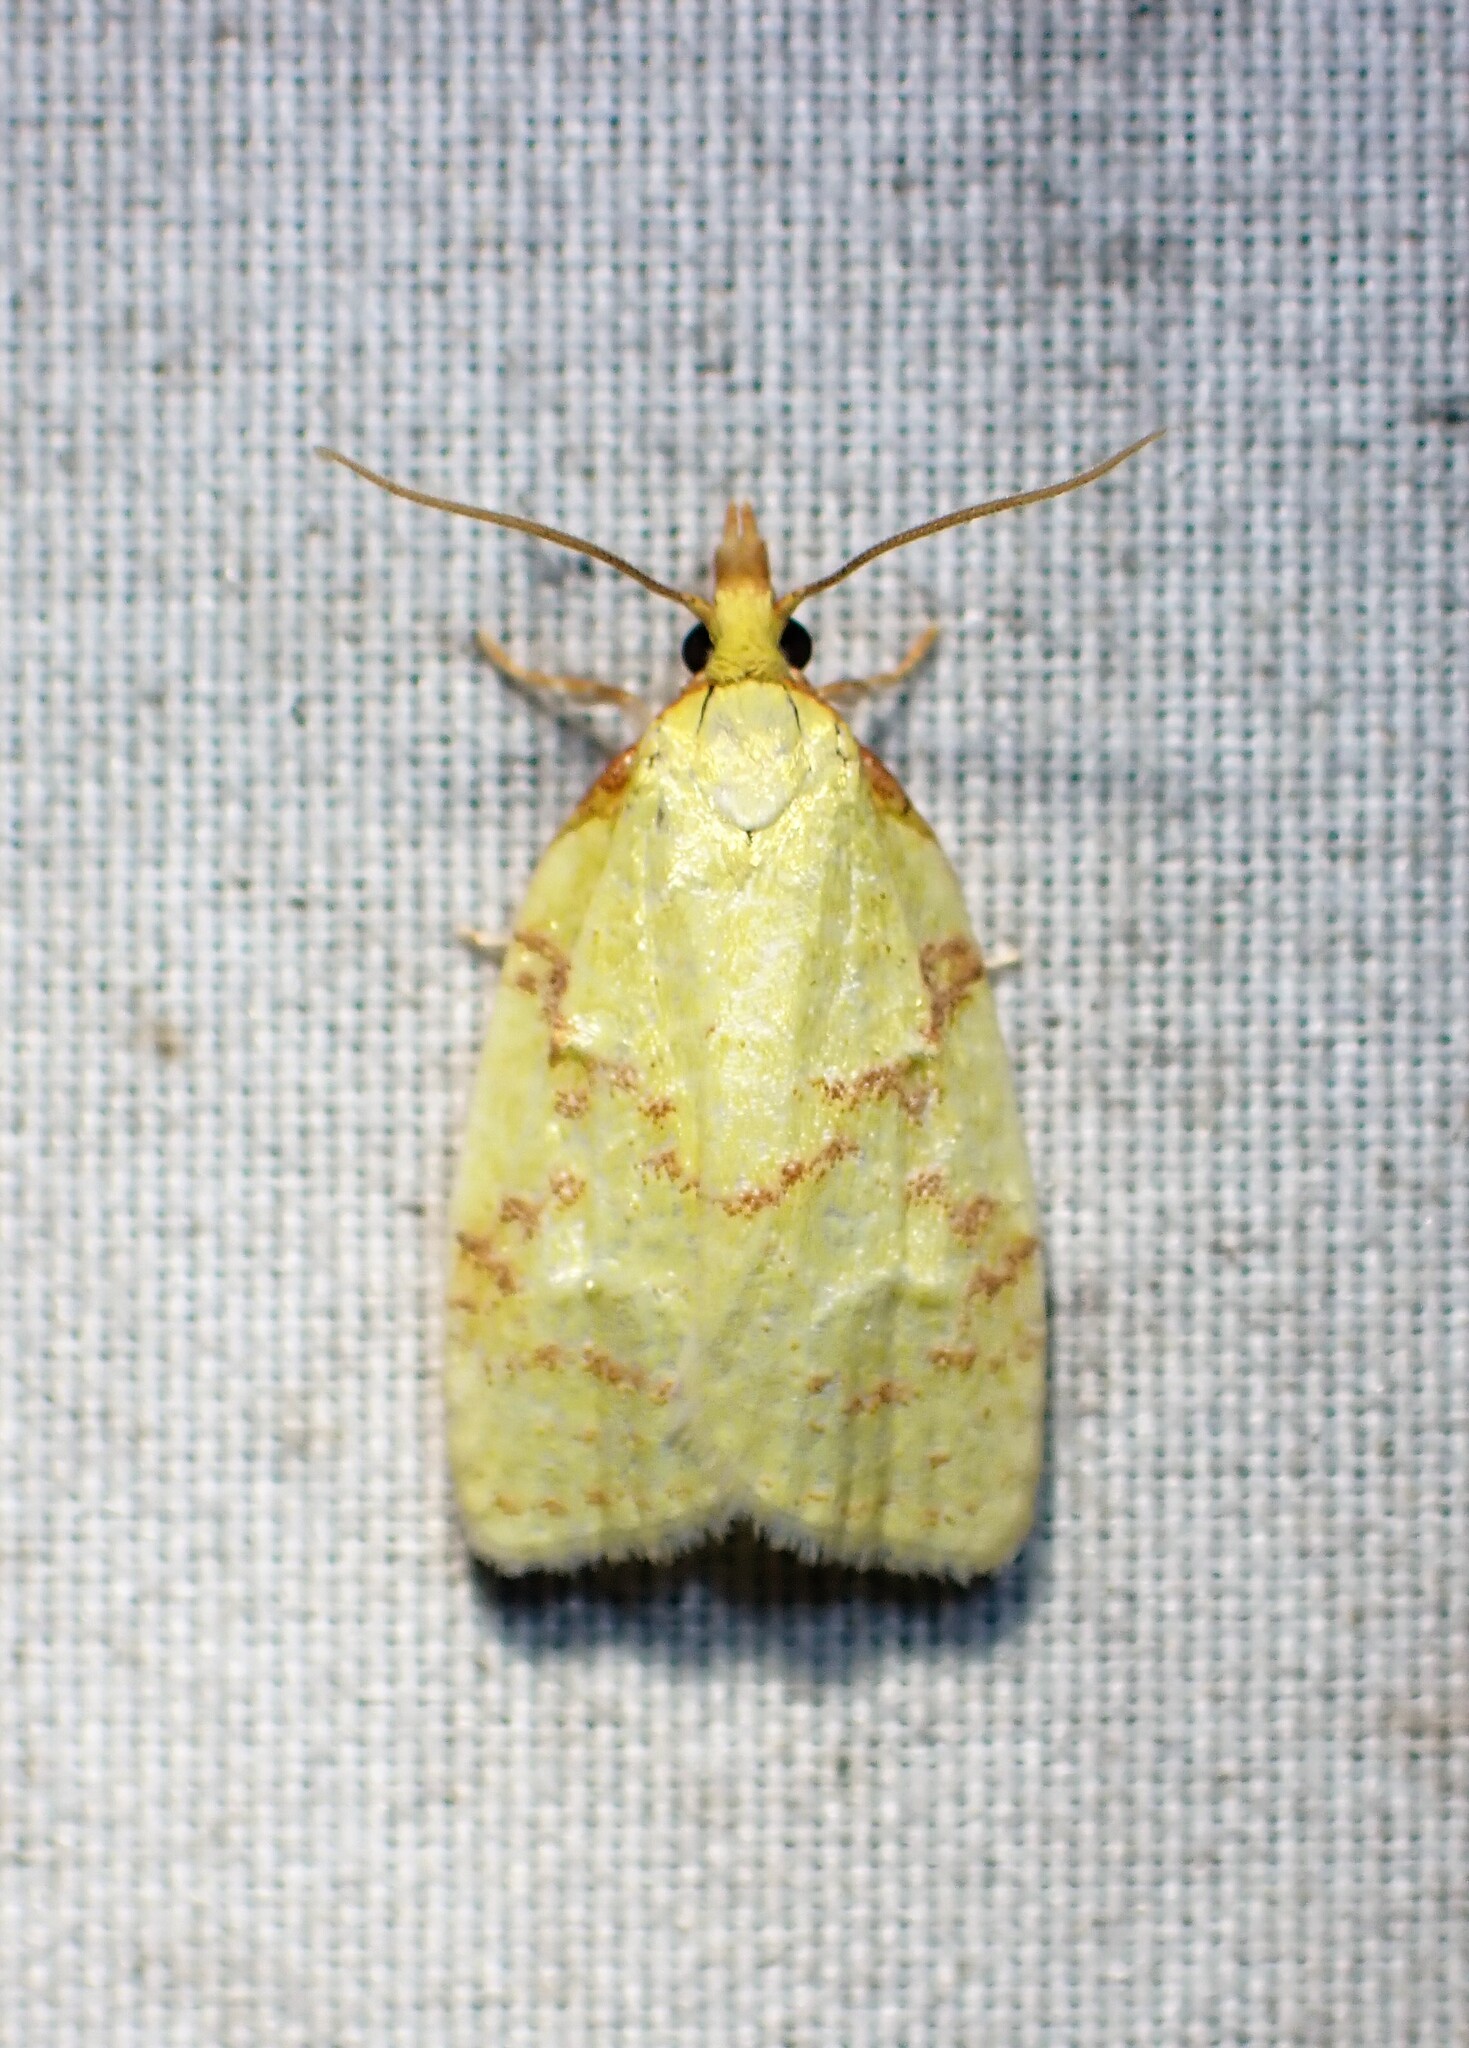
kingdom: Animalia
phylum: Arthropoda
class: Insecta
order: Lepidoptera
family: Tortricidae
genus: Cenopis
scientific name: Cenopis pettitana
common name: Maple-basswood leafroller moth
